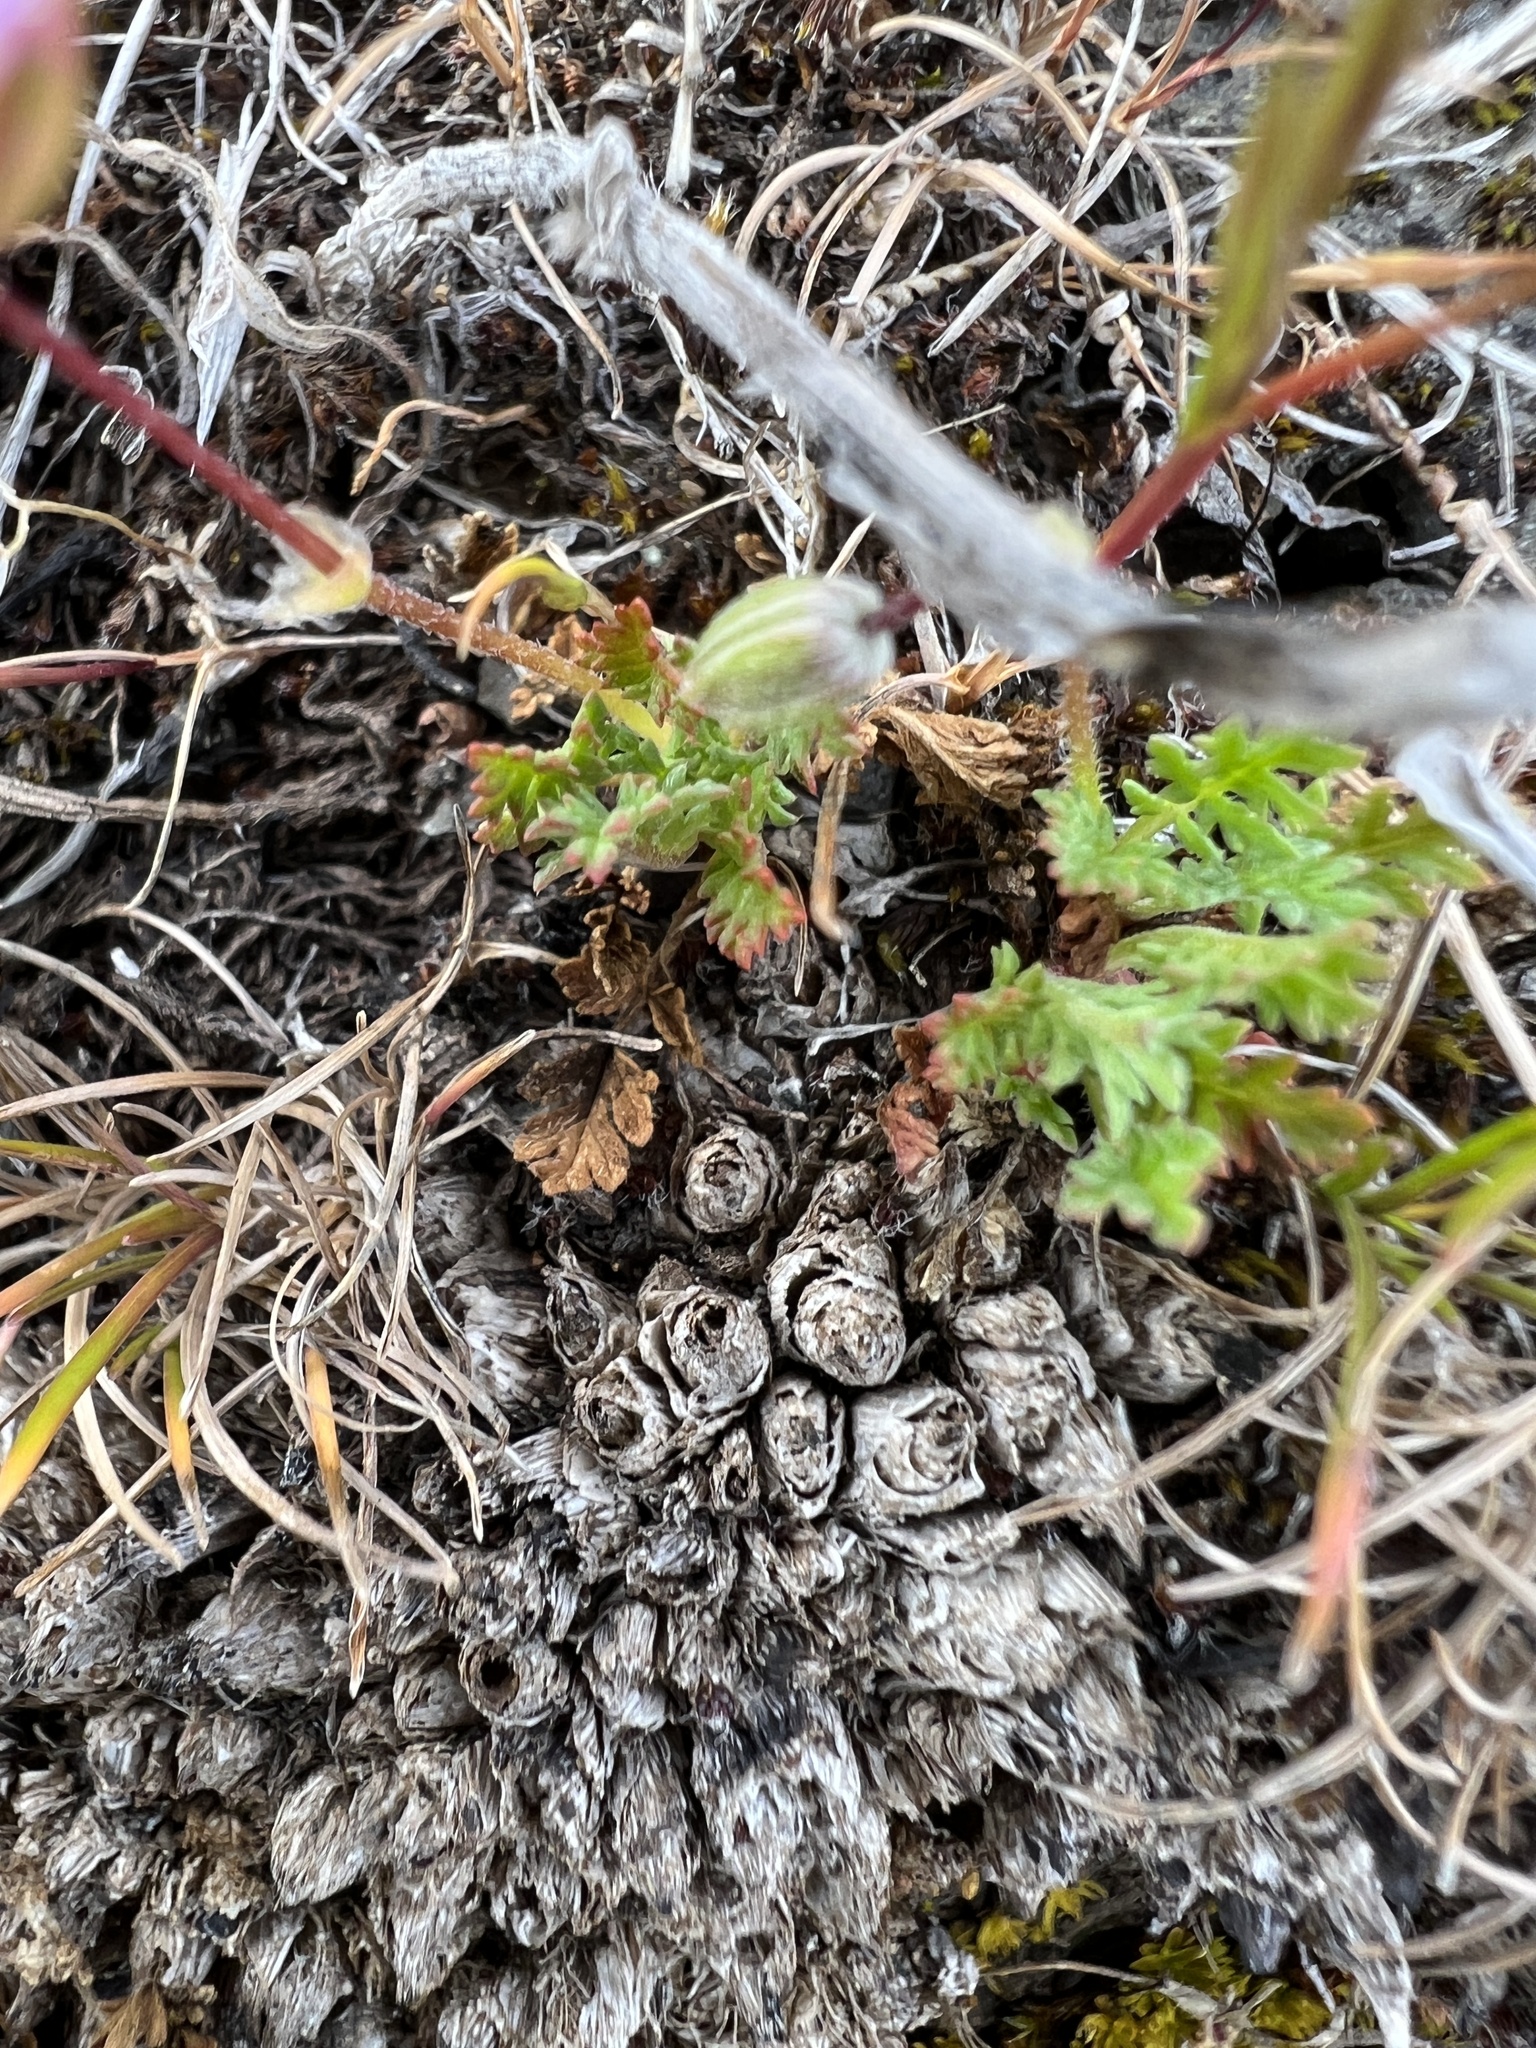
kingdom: Plantae
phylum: Tracheophyta
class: Magnoliopsida
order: Geraniales
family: Geraniaceae
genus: Erodium
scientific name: Erodium cicutarium
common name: Common stork's-bill
